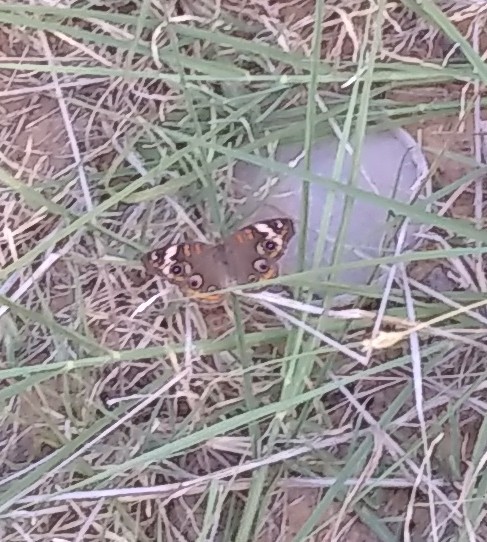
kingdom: Animalia
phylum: Arthropoda
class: Insecta
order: Lepidoptera
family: Nymphalidae
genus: Junonia
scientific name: Junonia coenia
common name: Common buckeye
